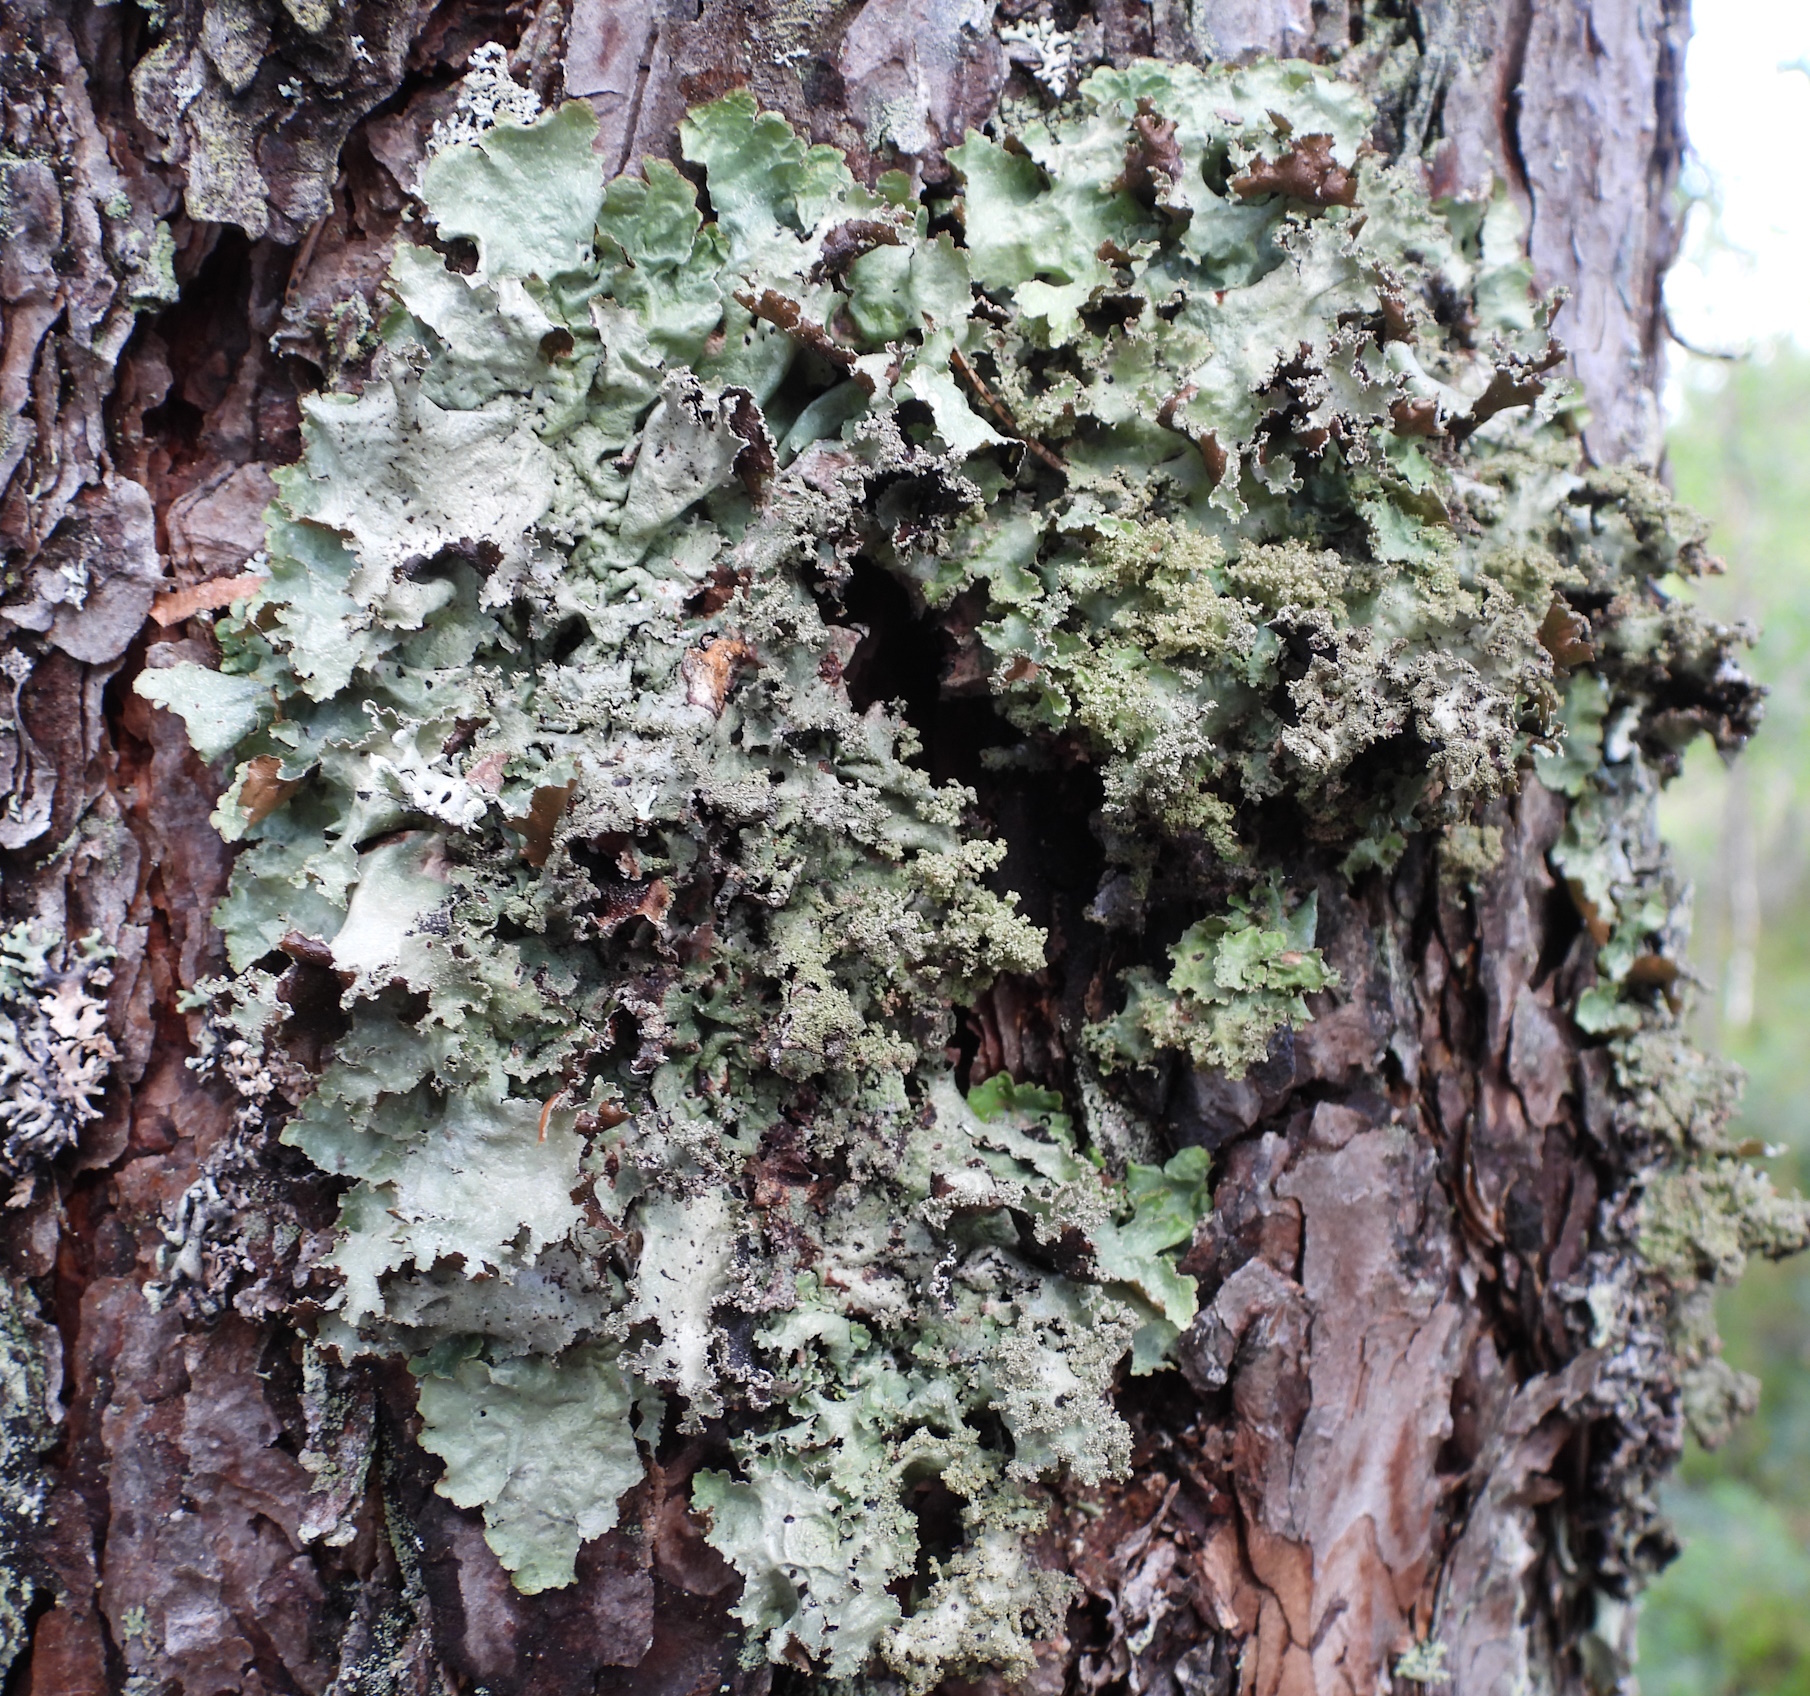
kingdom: Fungi
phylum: Ascomycota
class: Lecanoromycetes
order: Lecanorales
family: Parmeliaceae
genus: Platismatia
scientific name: Platismatia glauca
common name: Varied rag lichen
